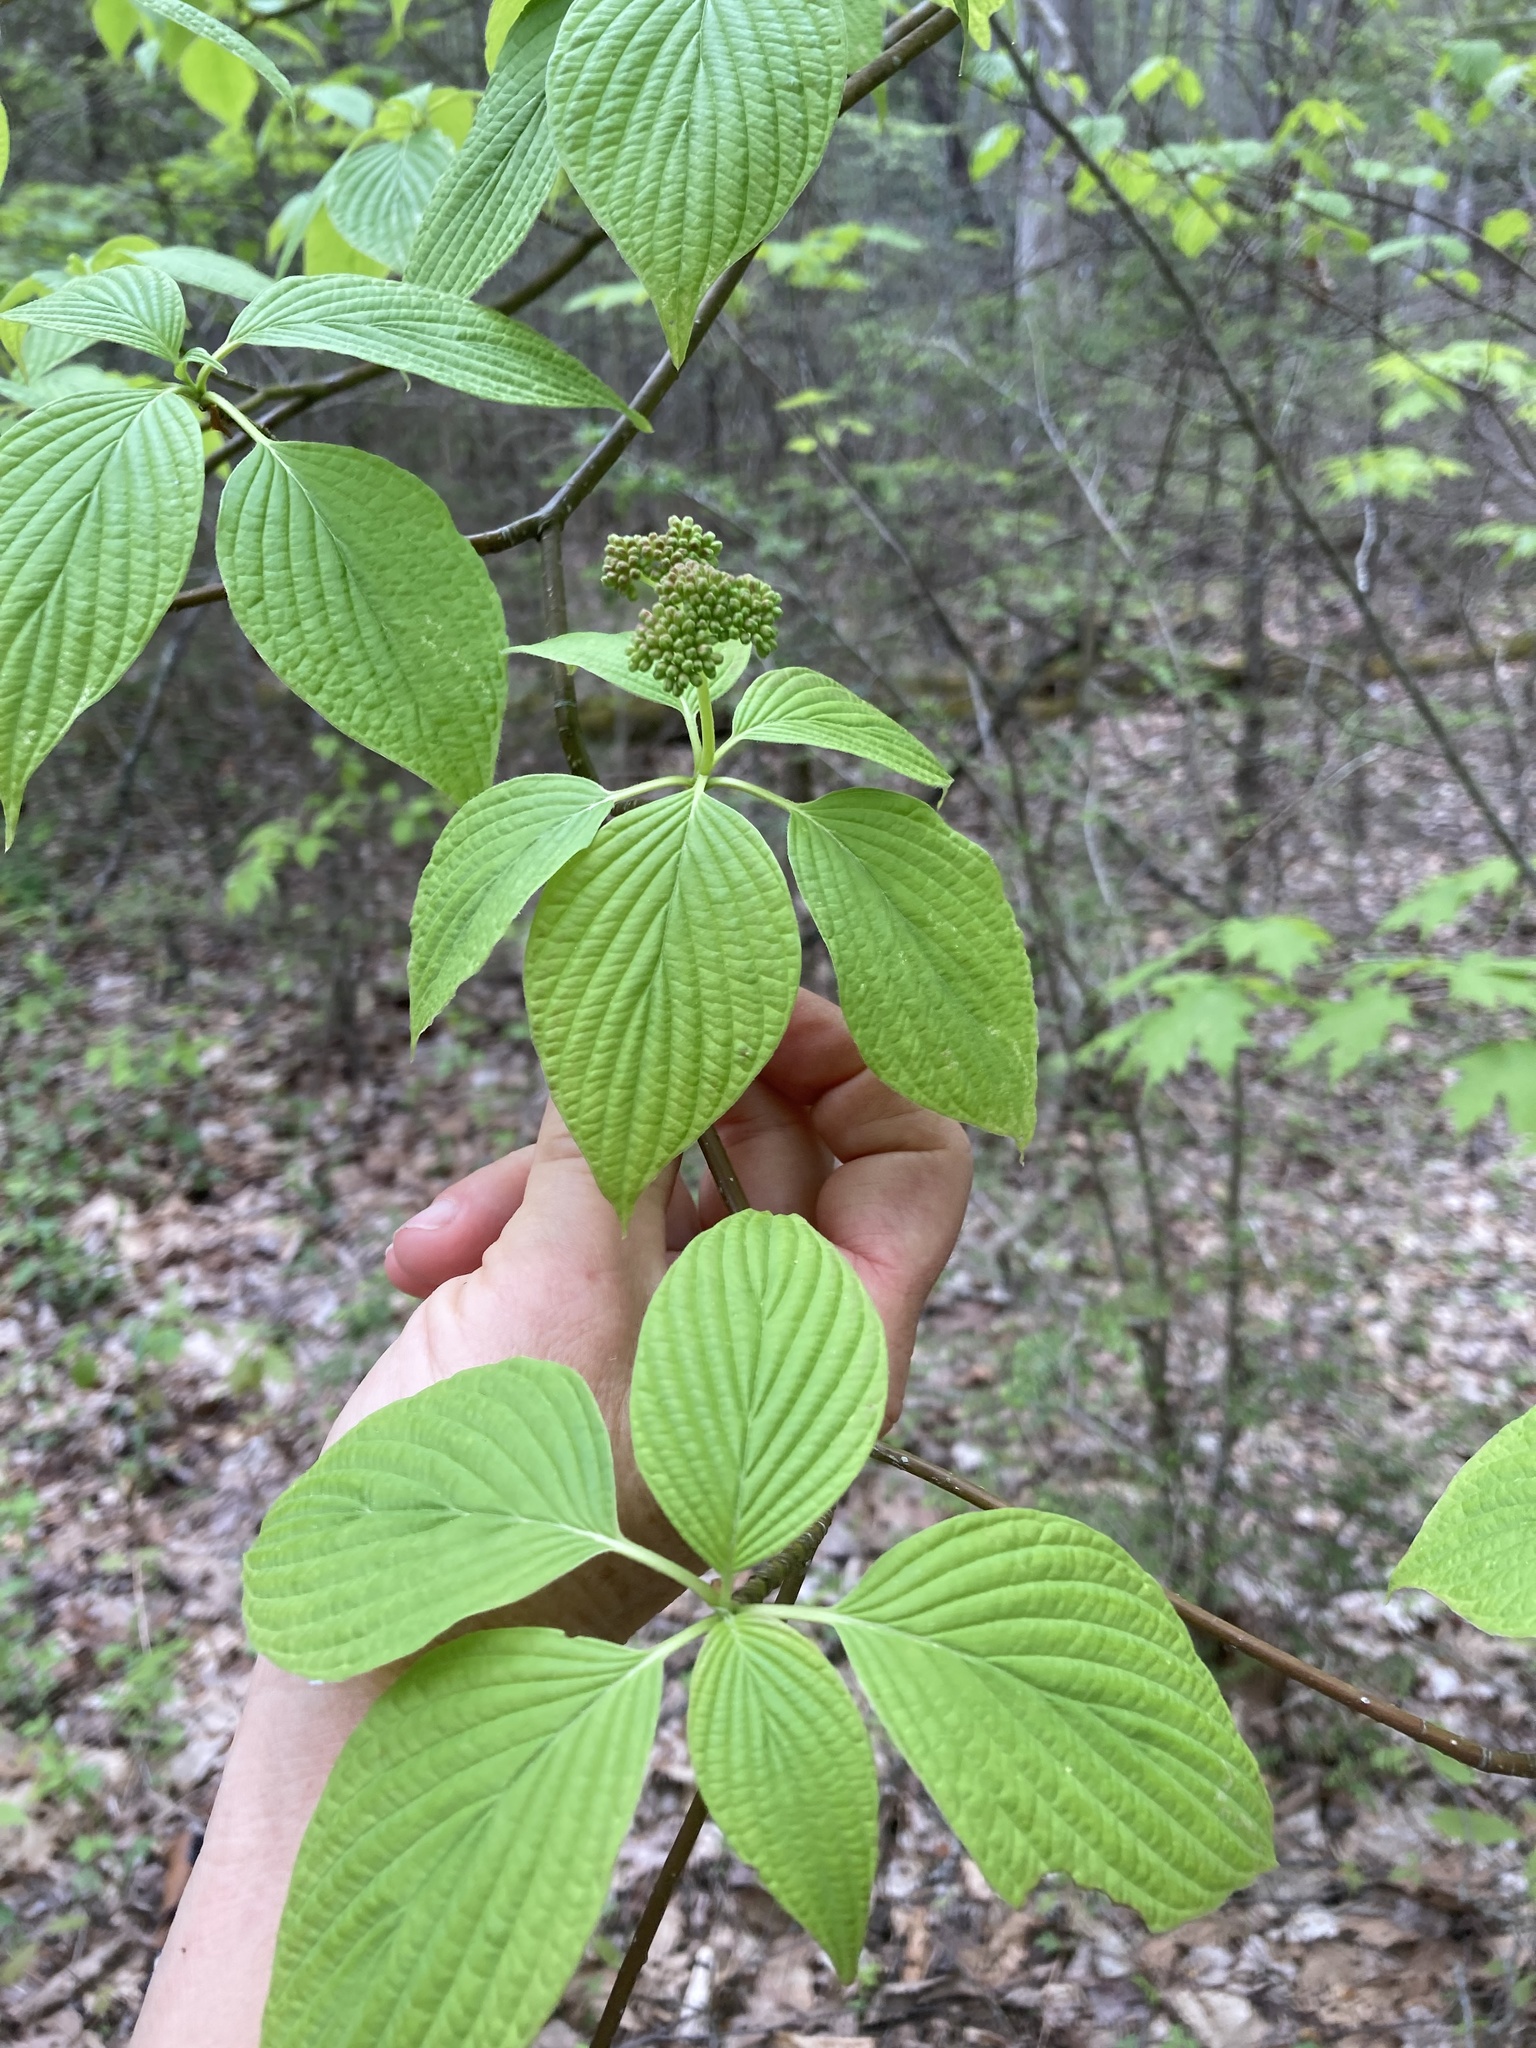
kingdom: Plantae
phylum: Tracheophyta
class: Magnoliopsida
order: Cornales
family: Cornaceae
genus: Cornus
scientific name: Cornus alternifolia
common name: Pagoda dogwood
